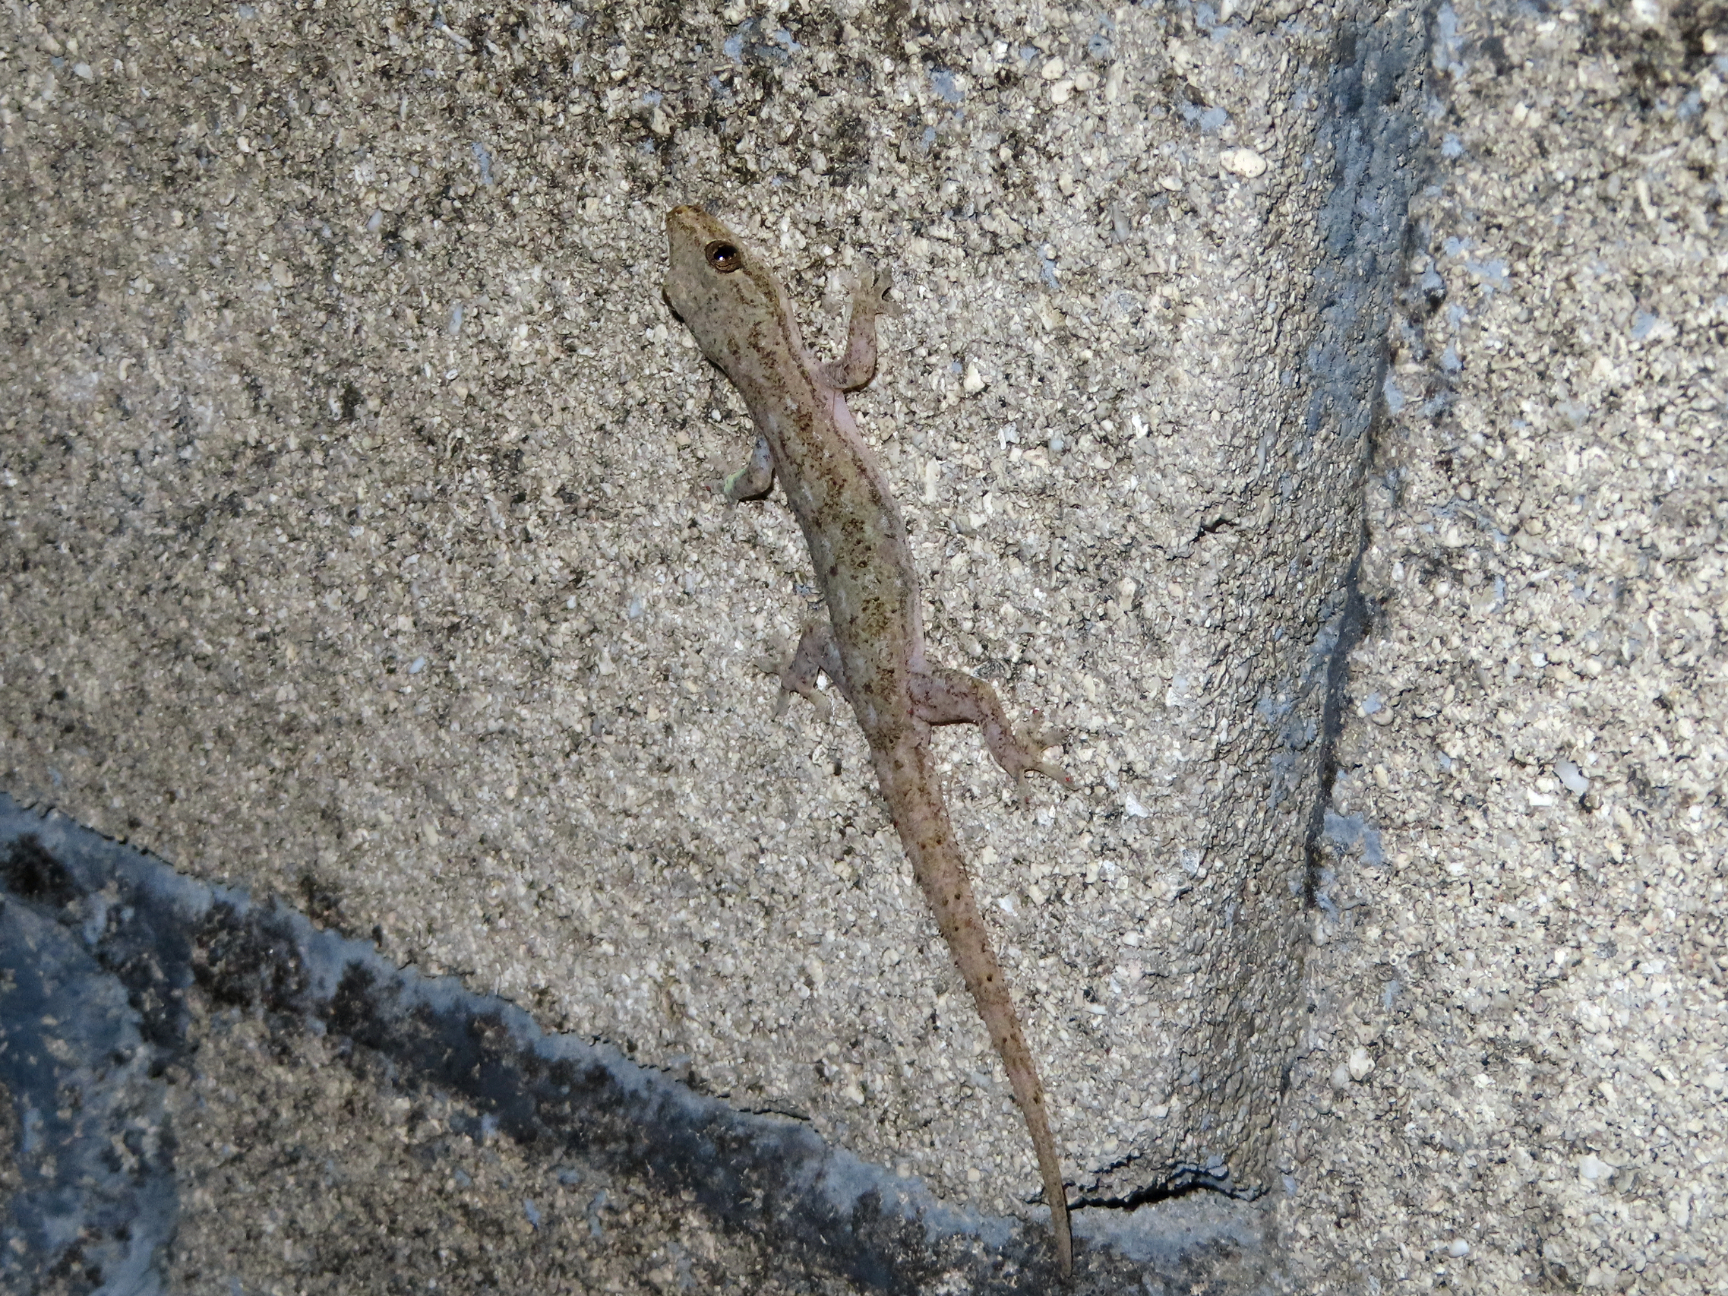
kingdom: Animalia
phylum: Chordata
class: Squamata
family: Gekkonidae
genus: Hemidactylus
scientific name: Hemidactylus frenatus
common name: Common house gecko
